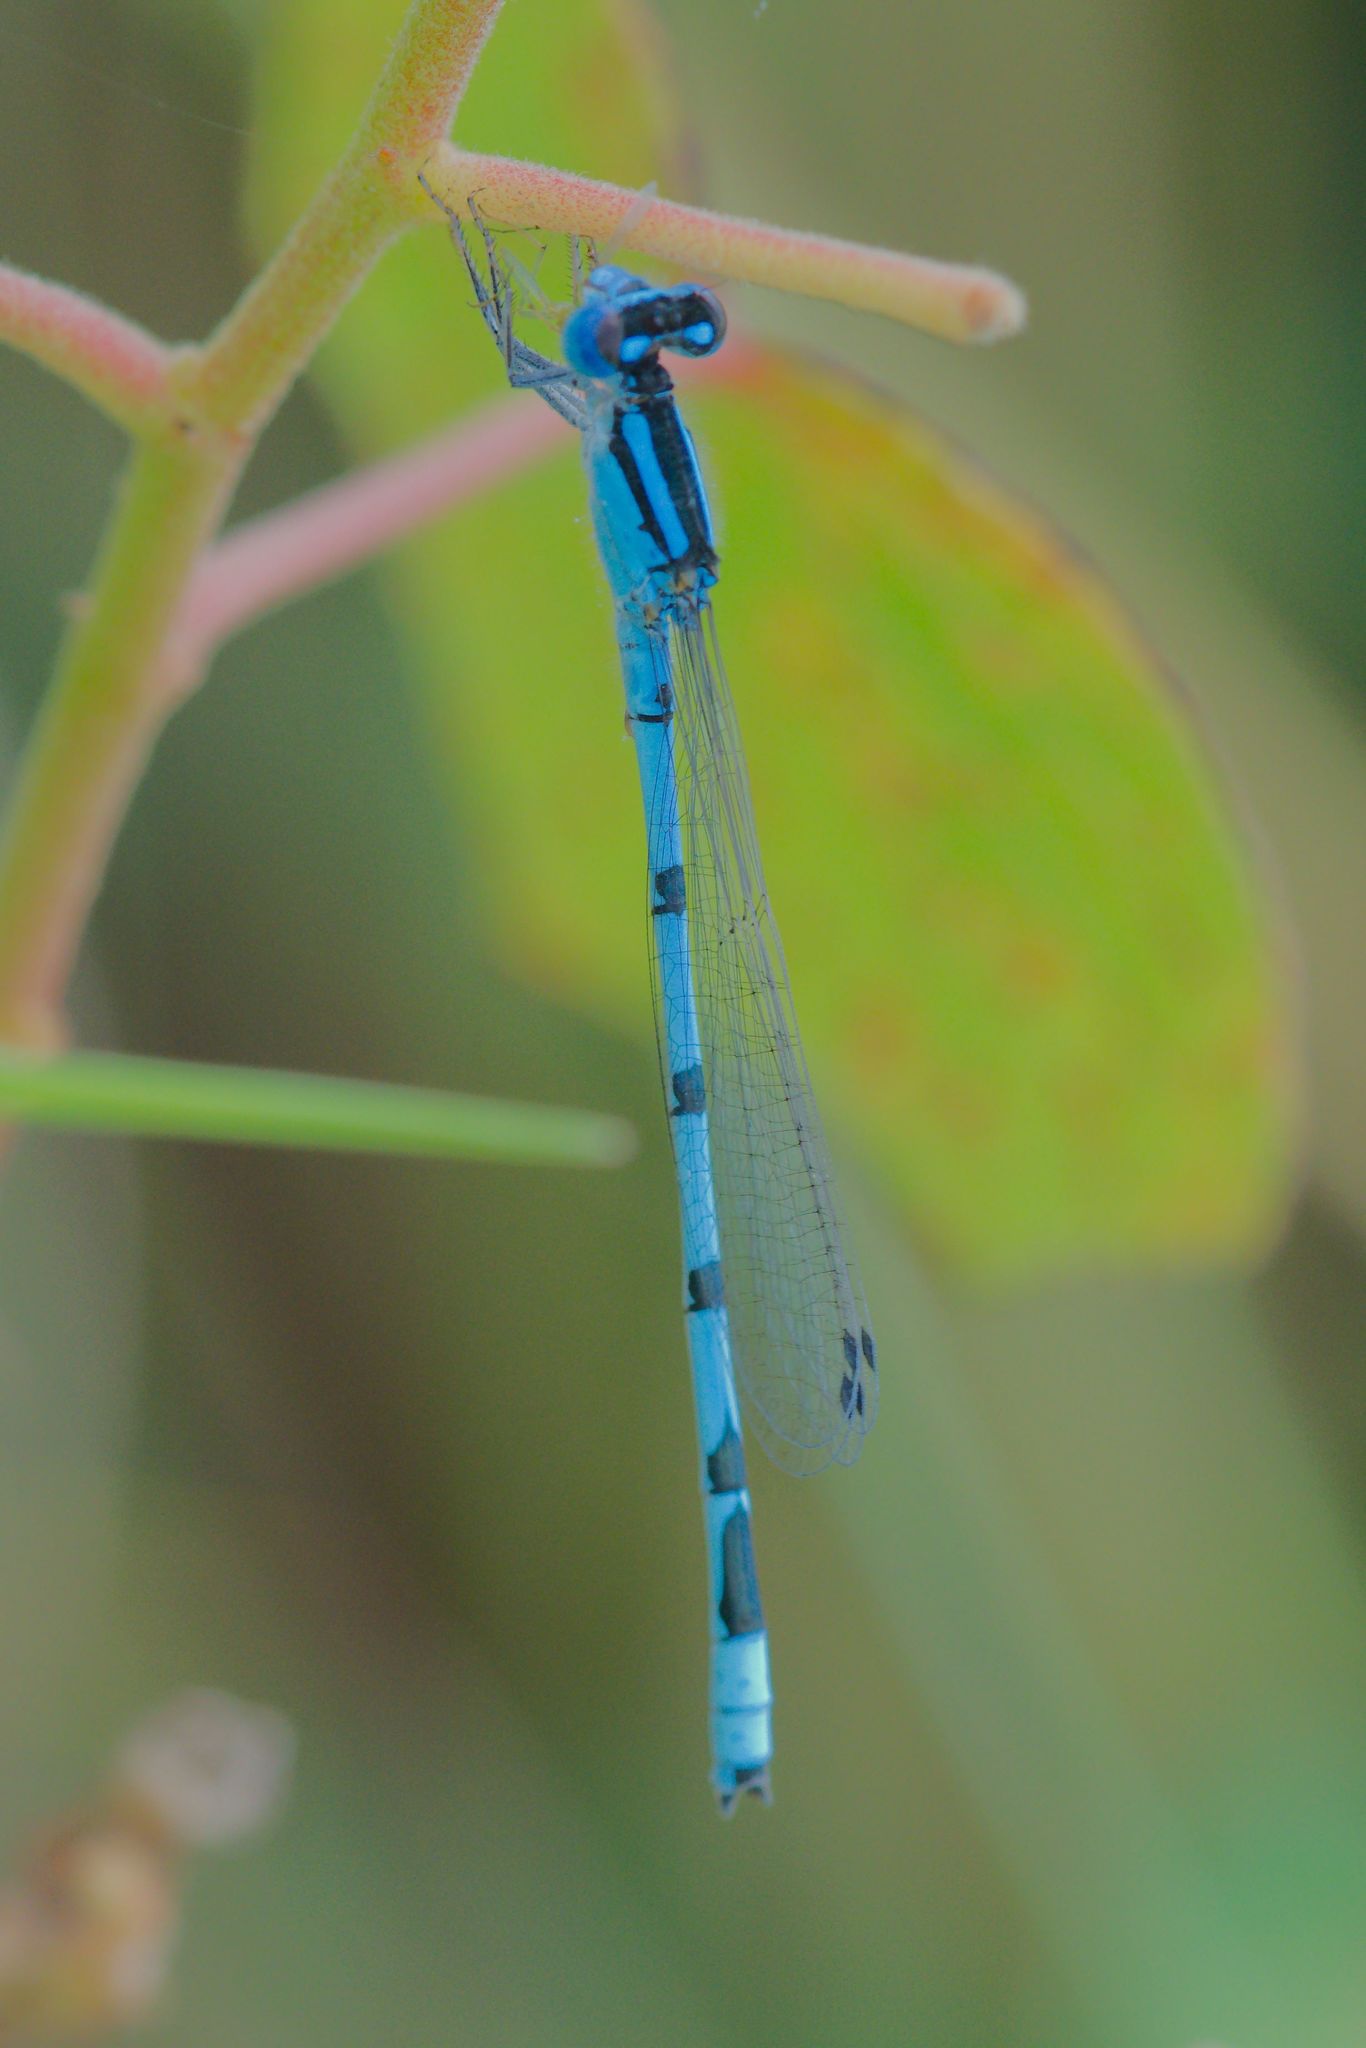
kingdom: Animalia
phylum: Arthropoda
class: Insecta
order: Odonata
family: Coenagrionidae
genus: Enallagma
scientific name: Enallagma civile
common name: Damselfly
